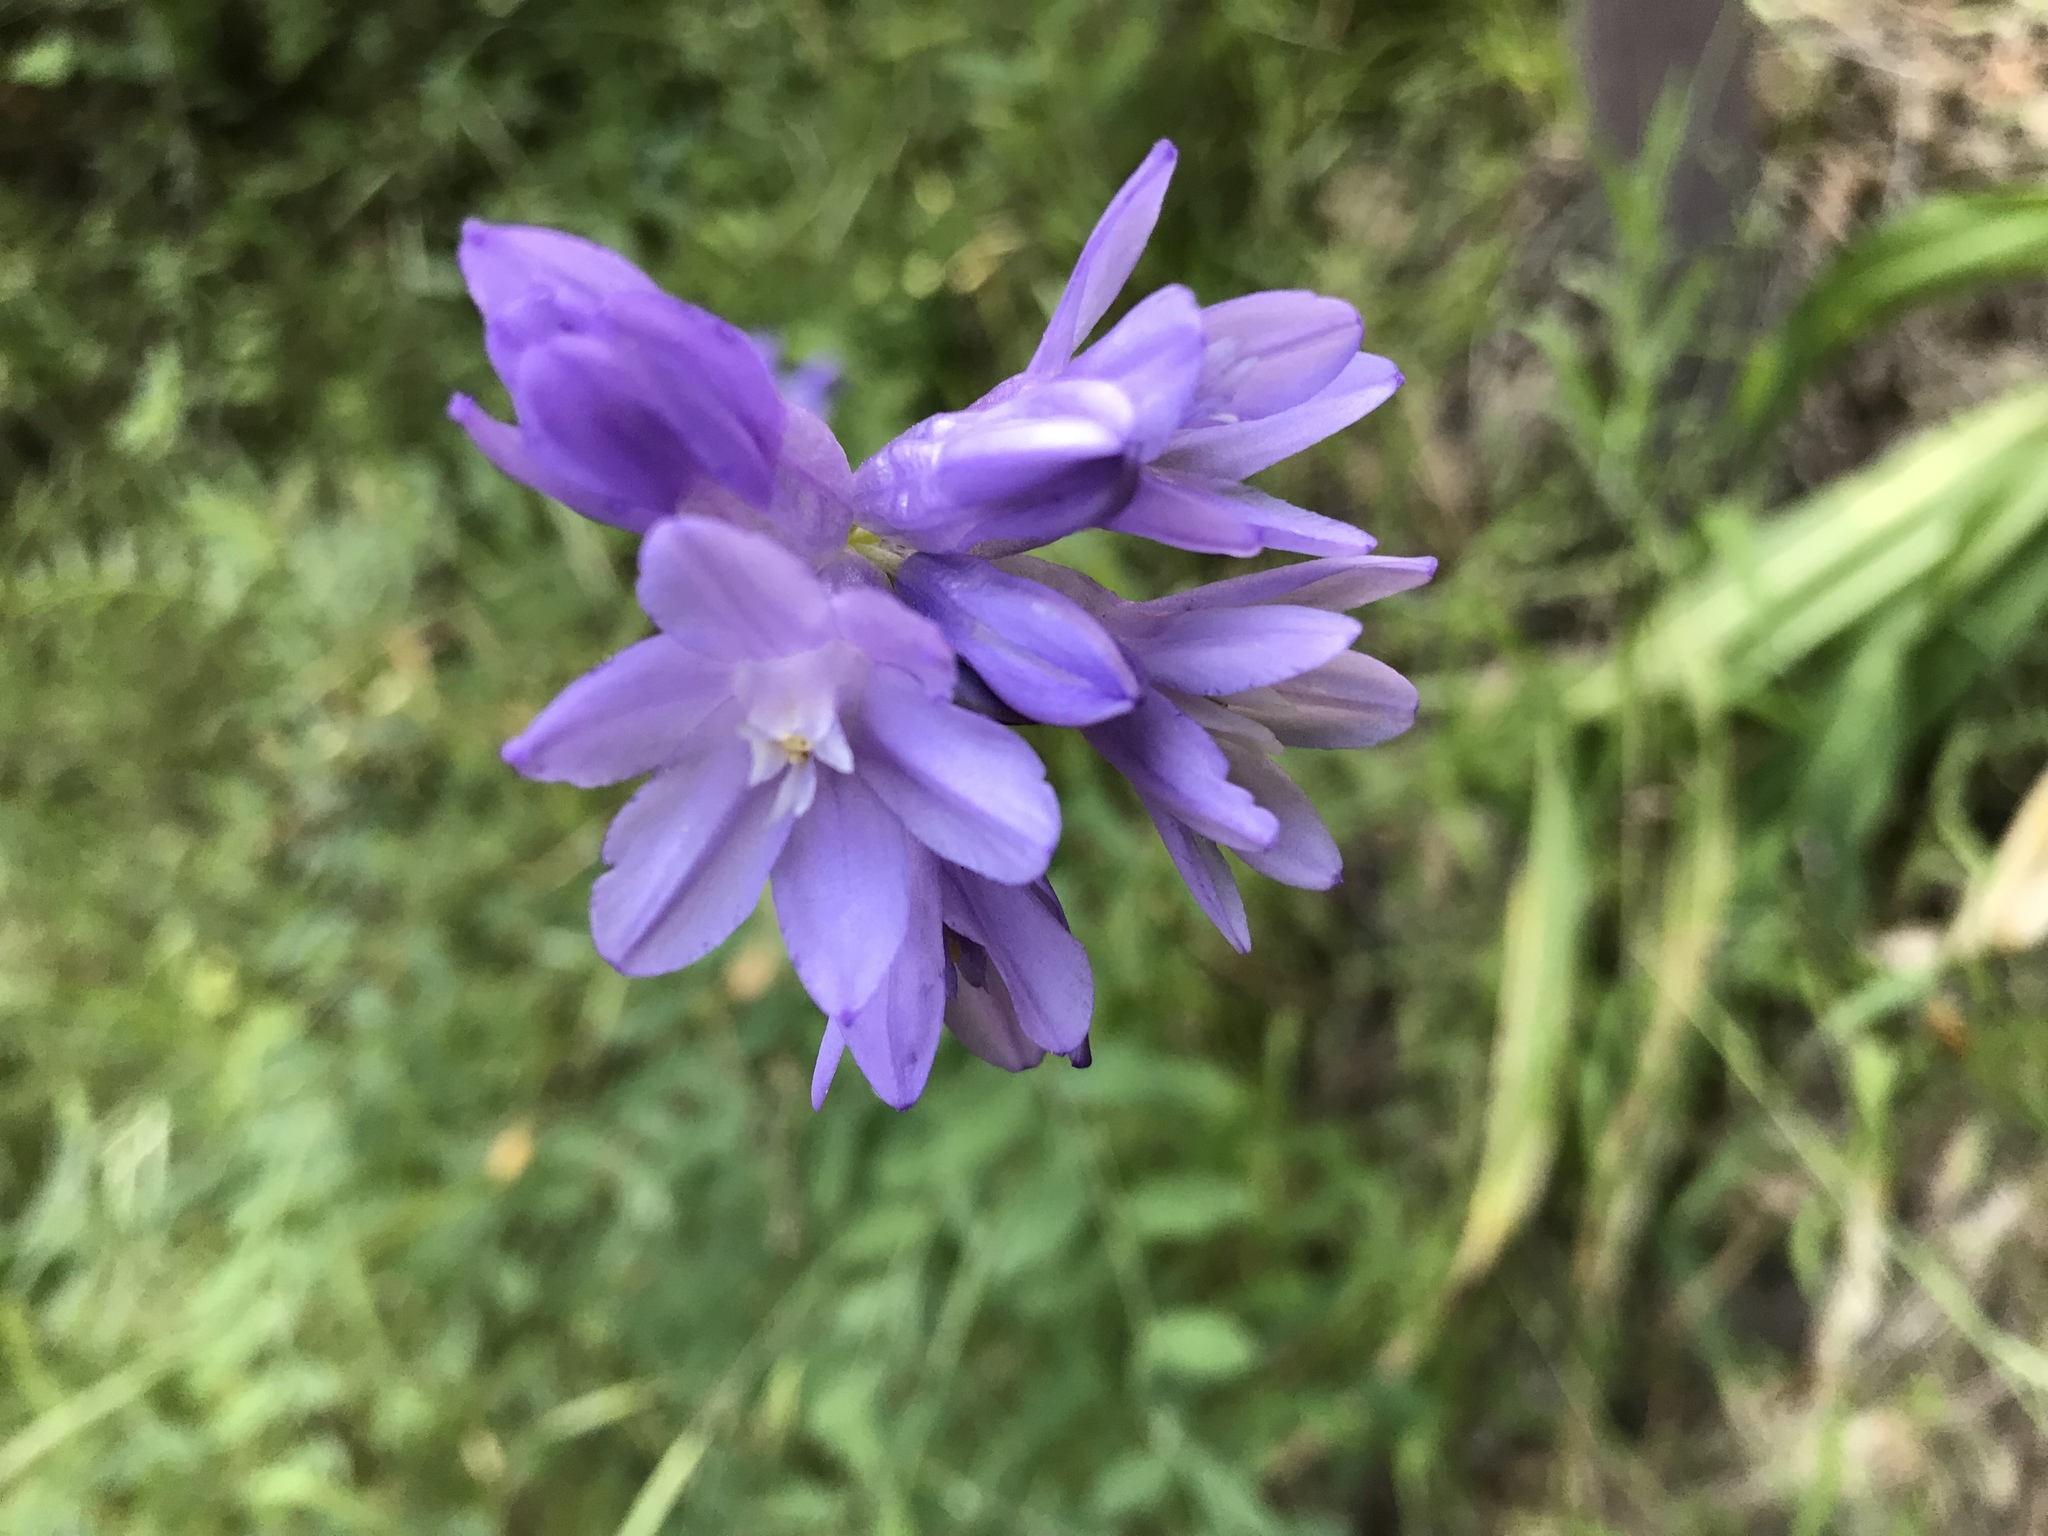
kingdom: Plantae
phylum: Tracheophyta
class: Liliopsida
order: Asparagales
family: Asparagaceae
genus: Dipterostemon
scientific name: Dipterostemon capitatus
